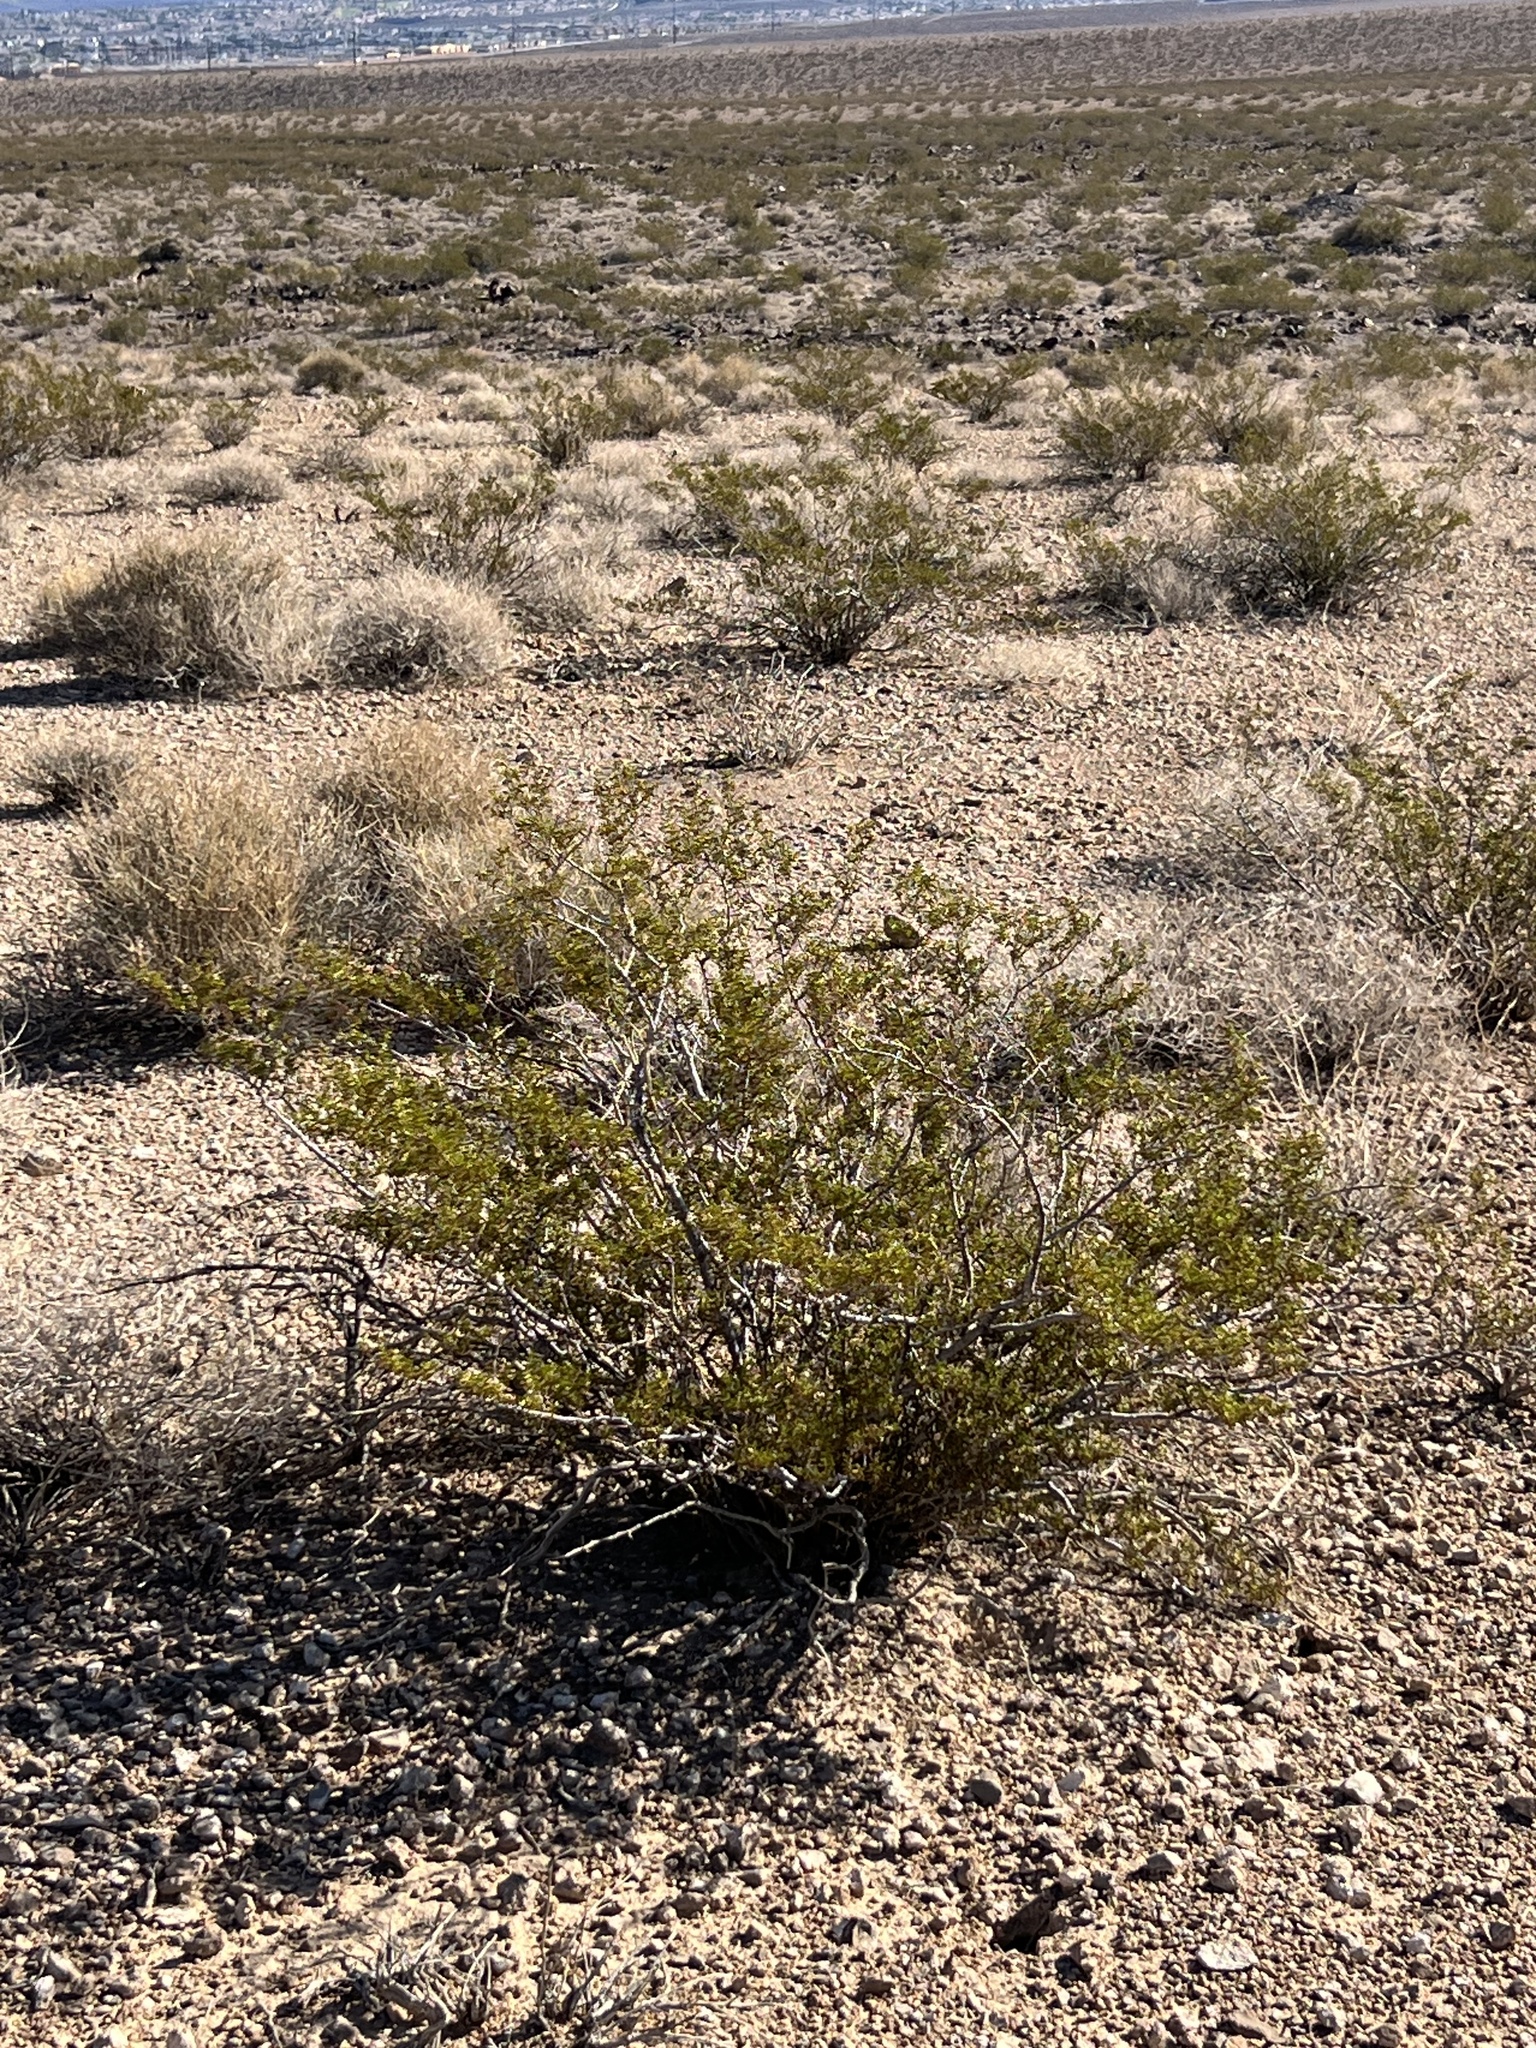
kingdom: Plantae
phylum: Tracheophyta
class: Magnoliopsida
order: Zygophyllales
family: Zygophyllaceae
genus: Larrea
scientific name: Larrea tridentata
